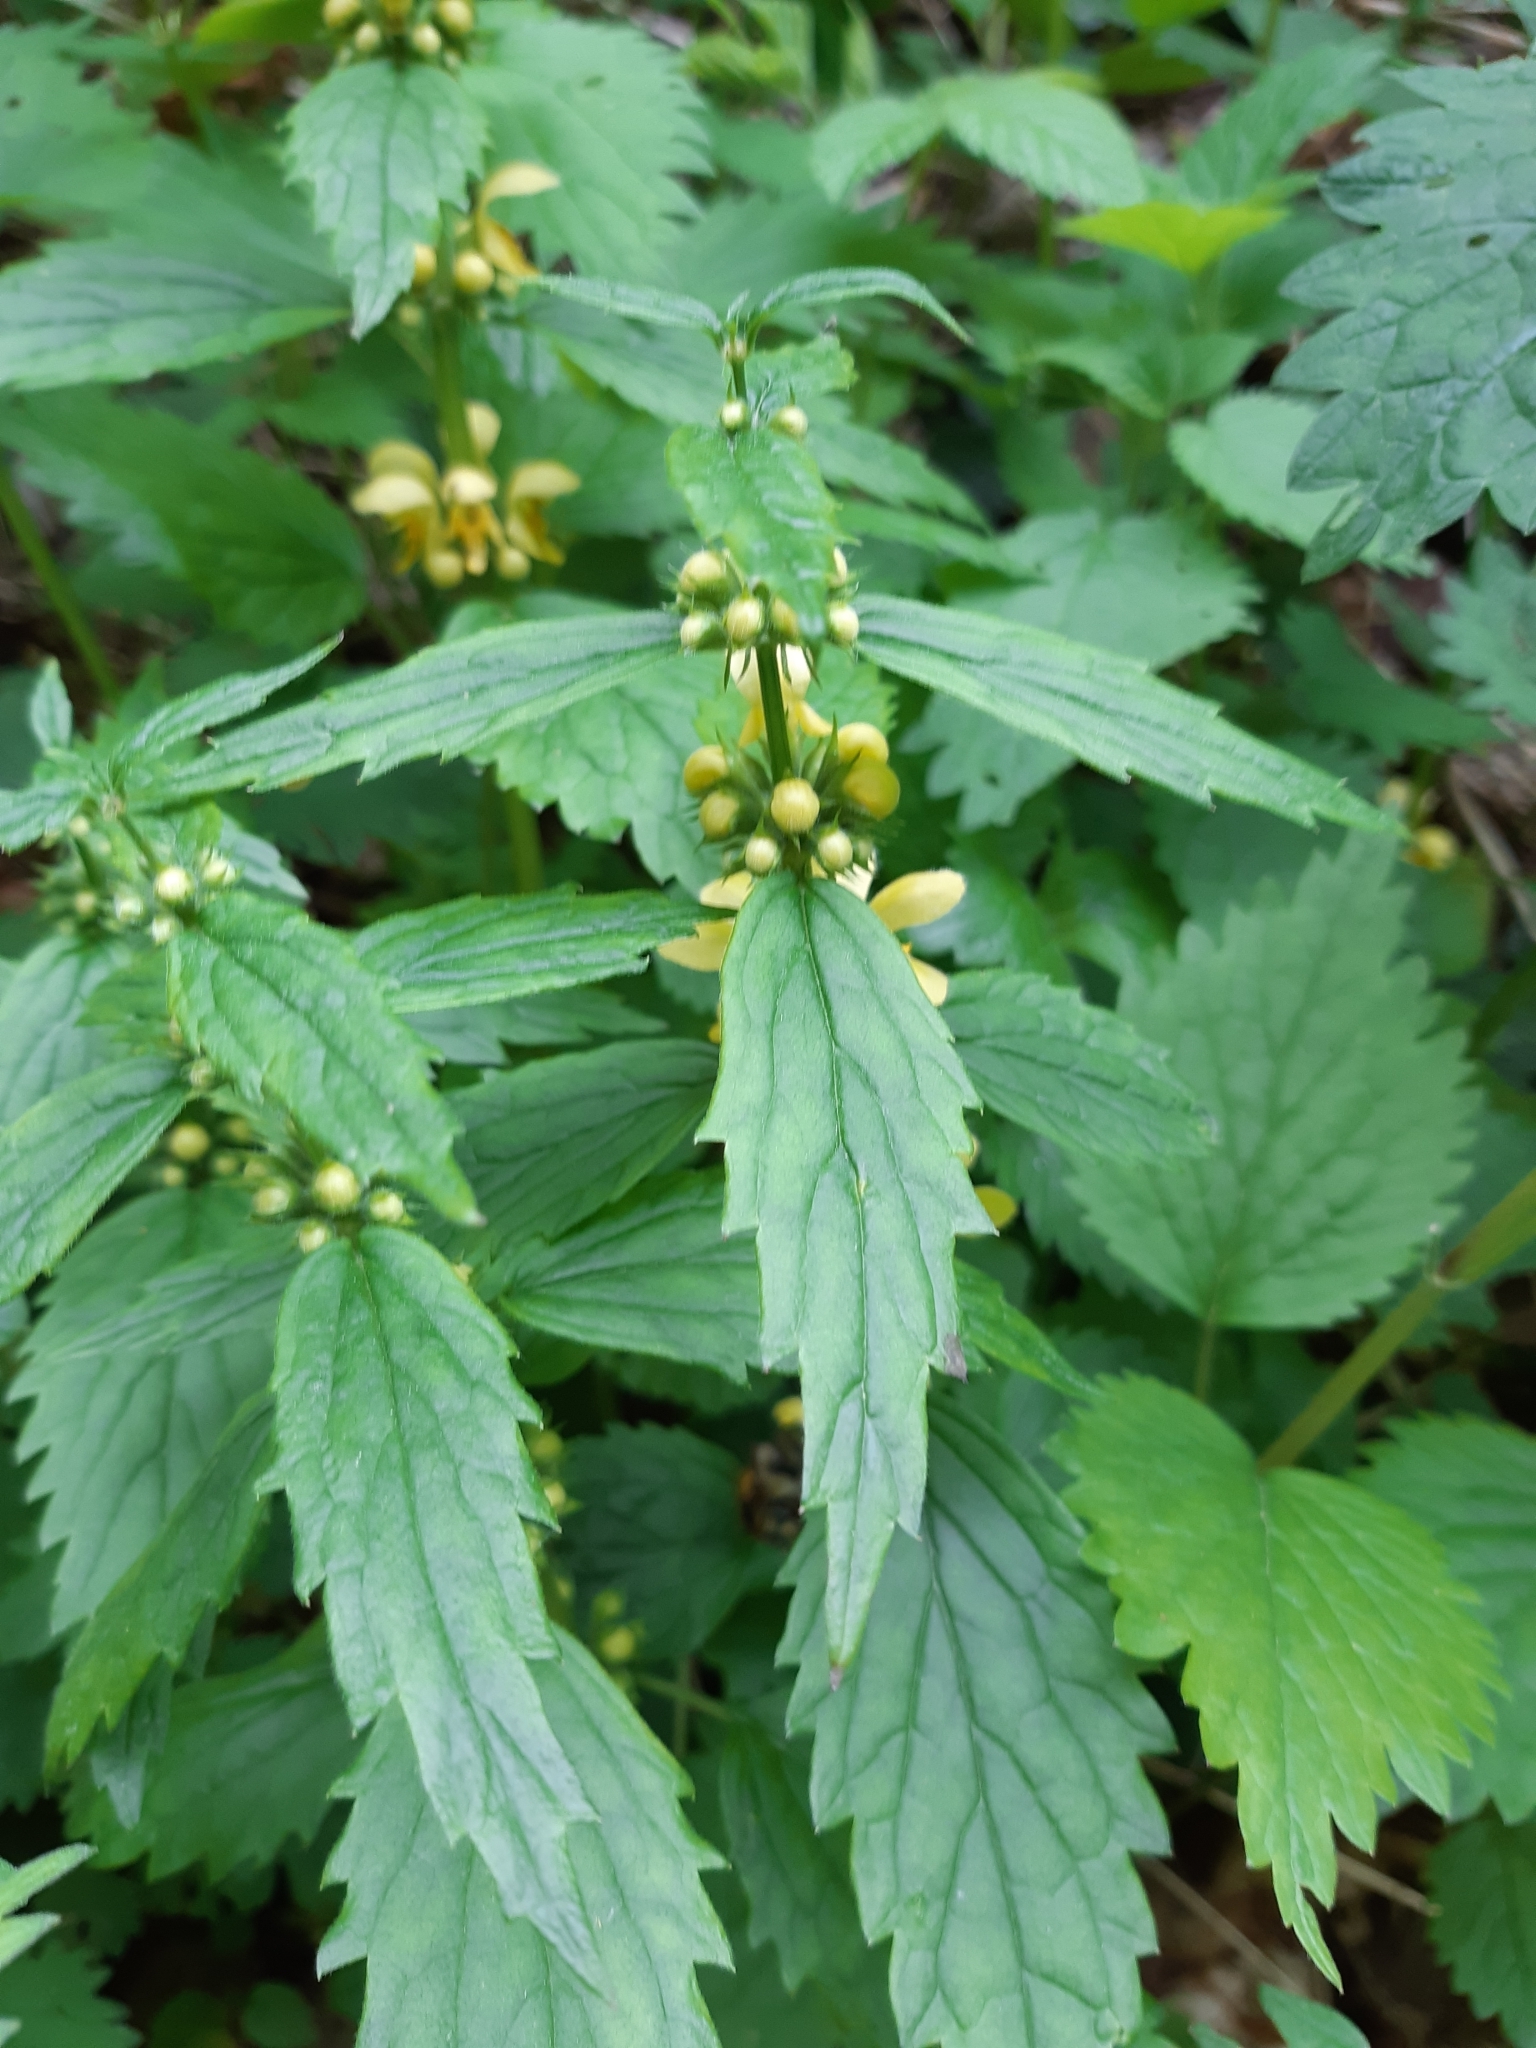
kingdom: Plantae
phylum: Tracheophyta
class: Magnoliopsida
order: Lamiales
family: Lamiaceae
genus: Lamium
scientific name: Lamium galeobdolon
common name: Yellow archangel
